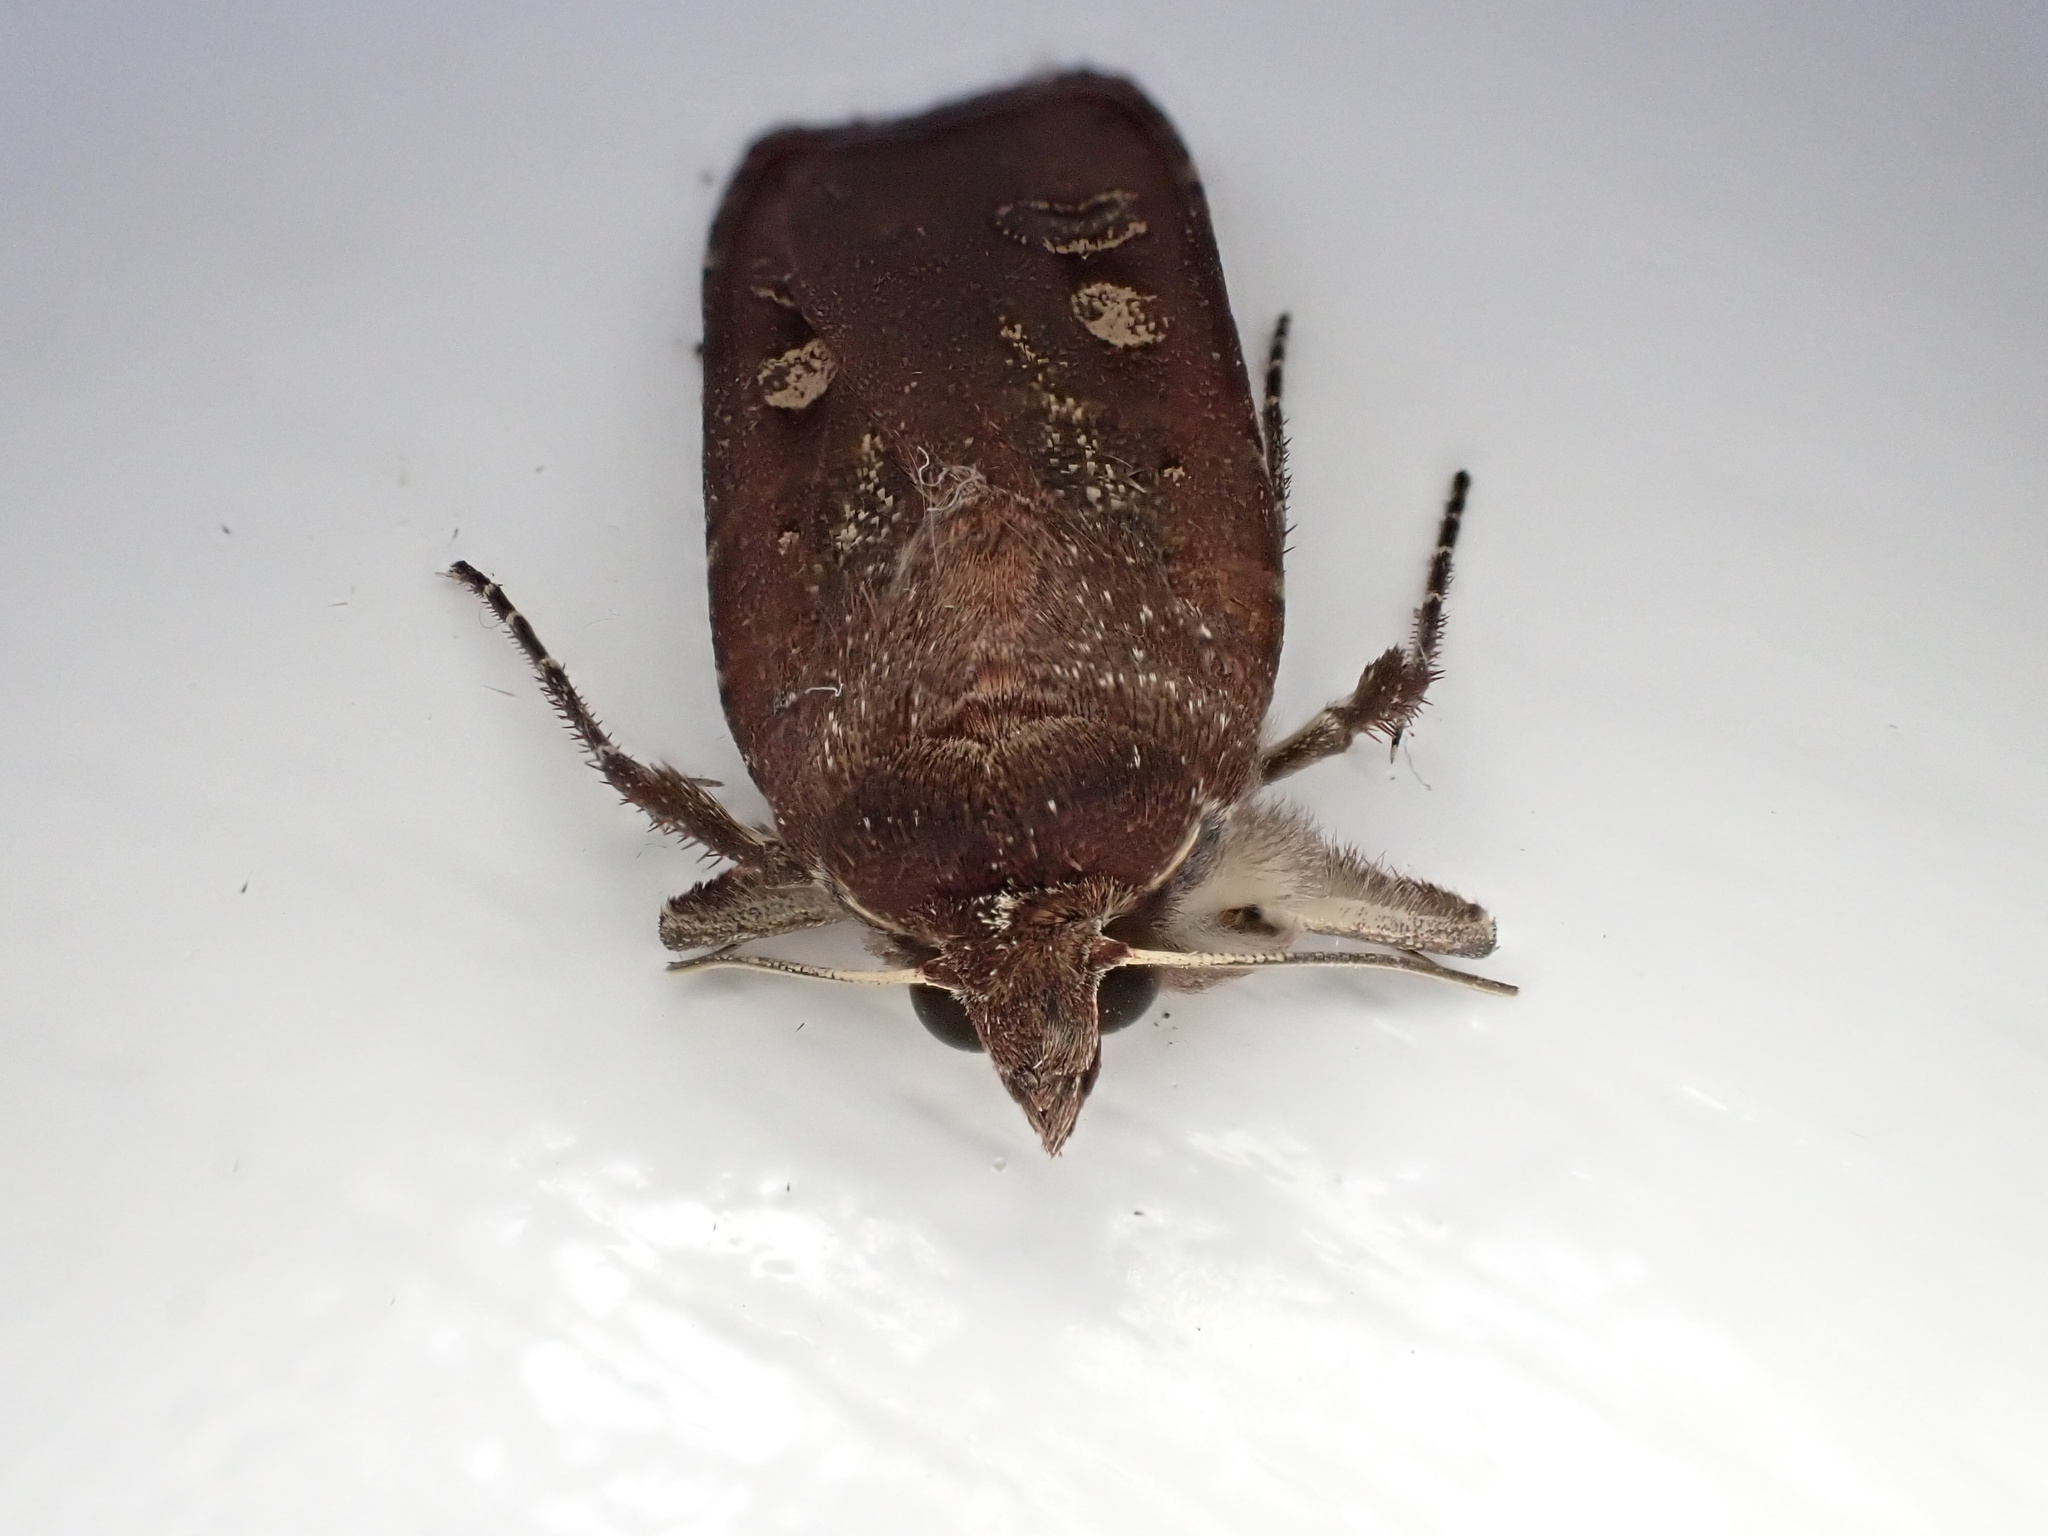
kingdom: Animalia
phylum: Arthropoda
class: Insecta
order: Lepidoptera
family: Noctuidae
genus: Noctua
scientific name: Noctua pronuba
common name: Large yellow underwing
